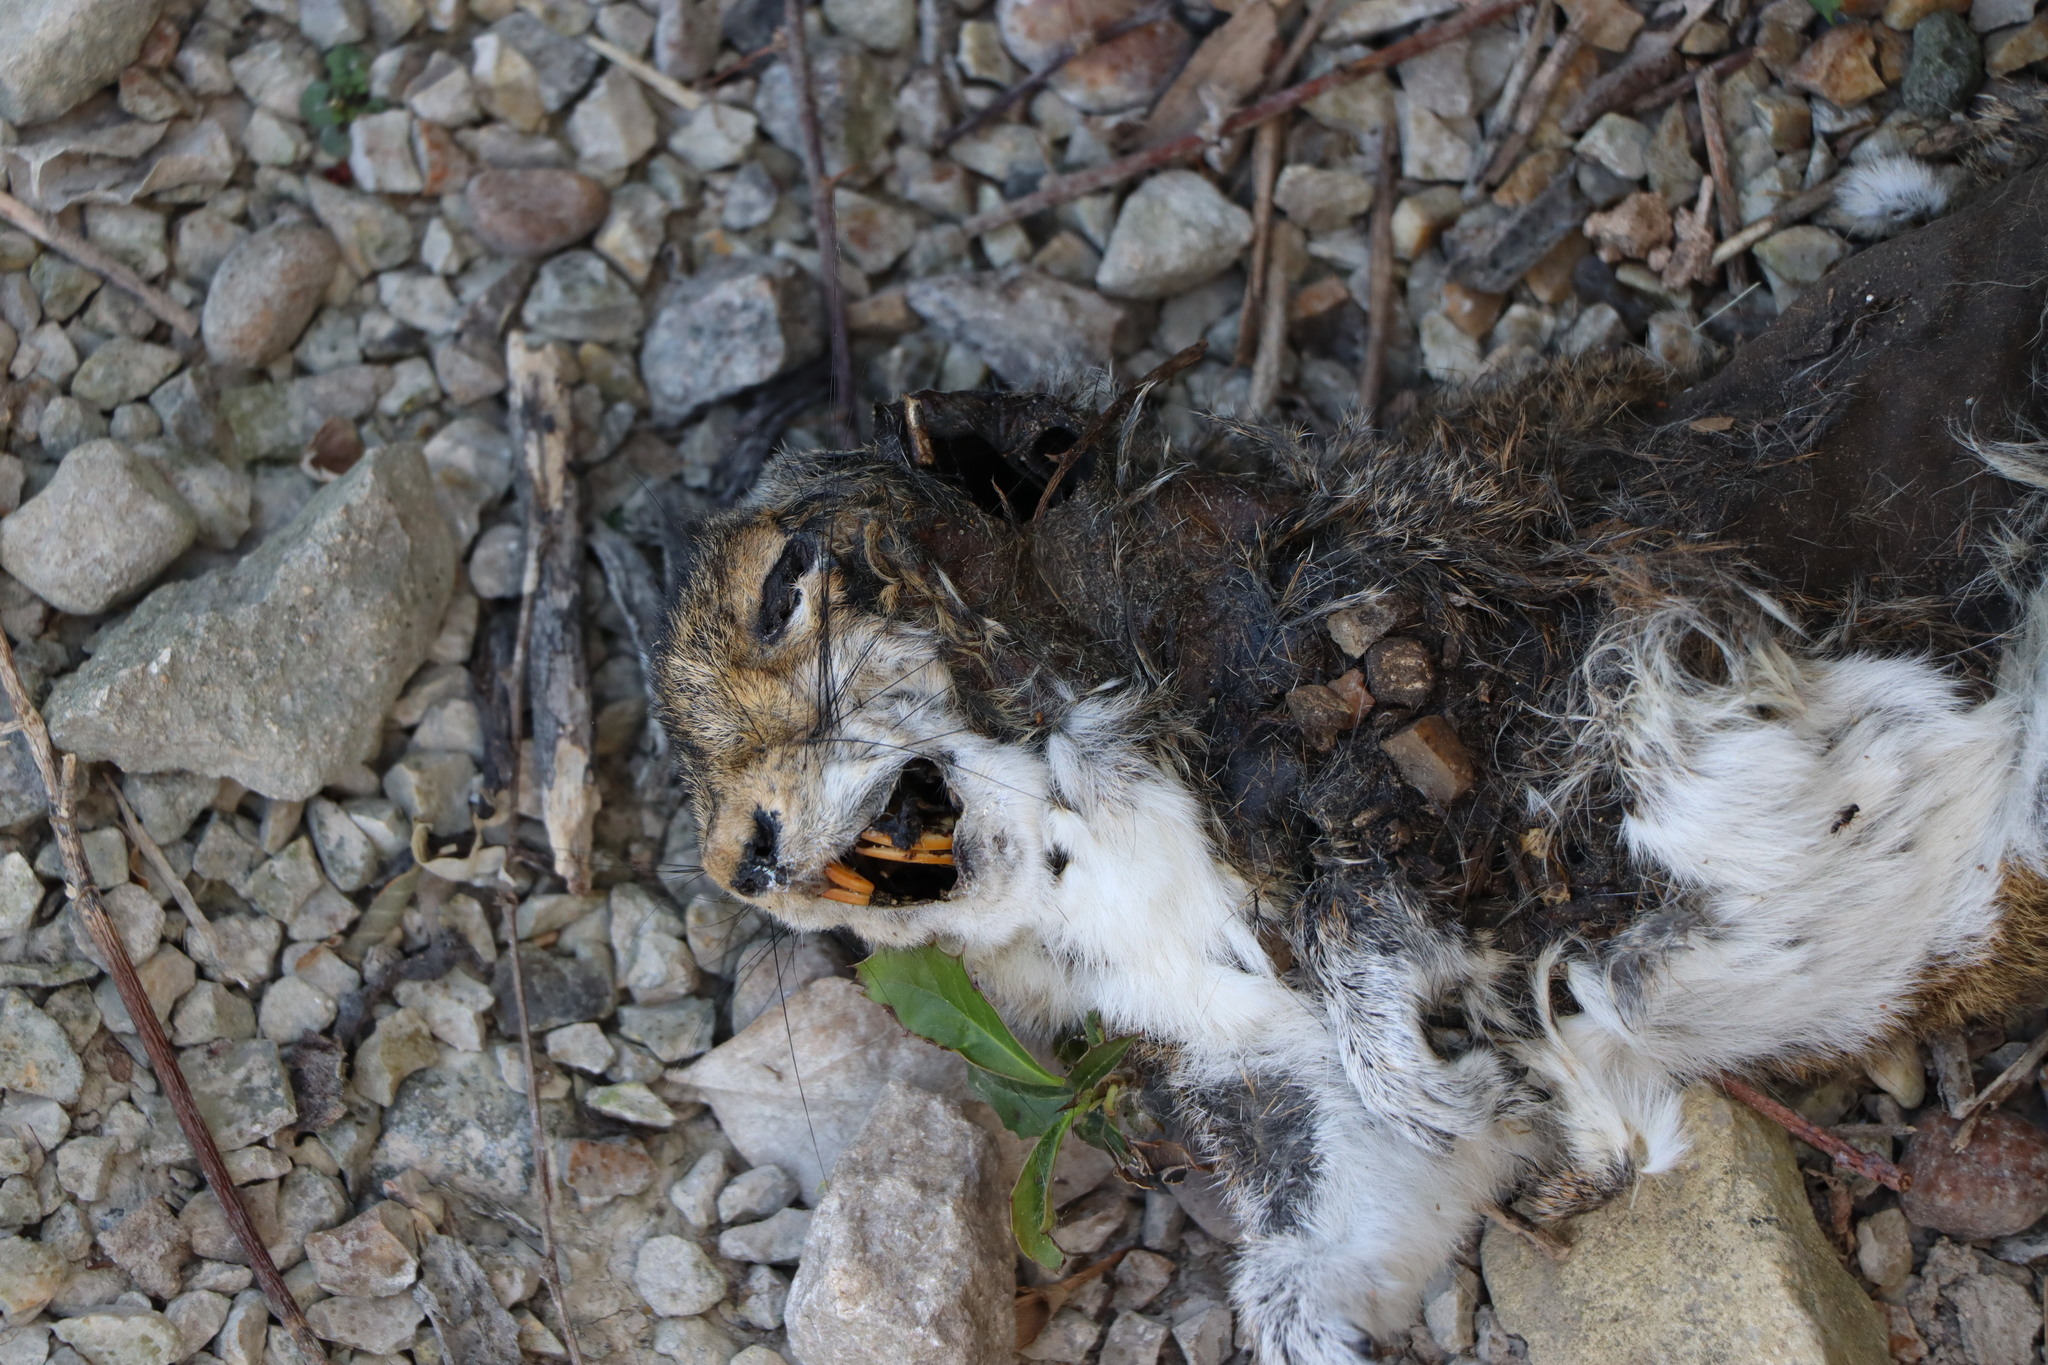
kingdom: Animalia
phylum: Chordata
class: Mammalia
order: Rodentia
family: Sciuridae
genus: Sciurus
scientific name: Sciurus carolinensis
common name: Eastern gray squirrel
